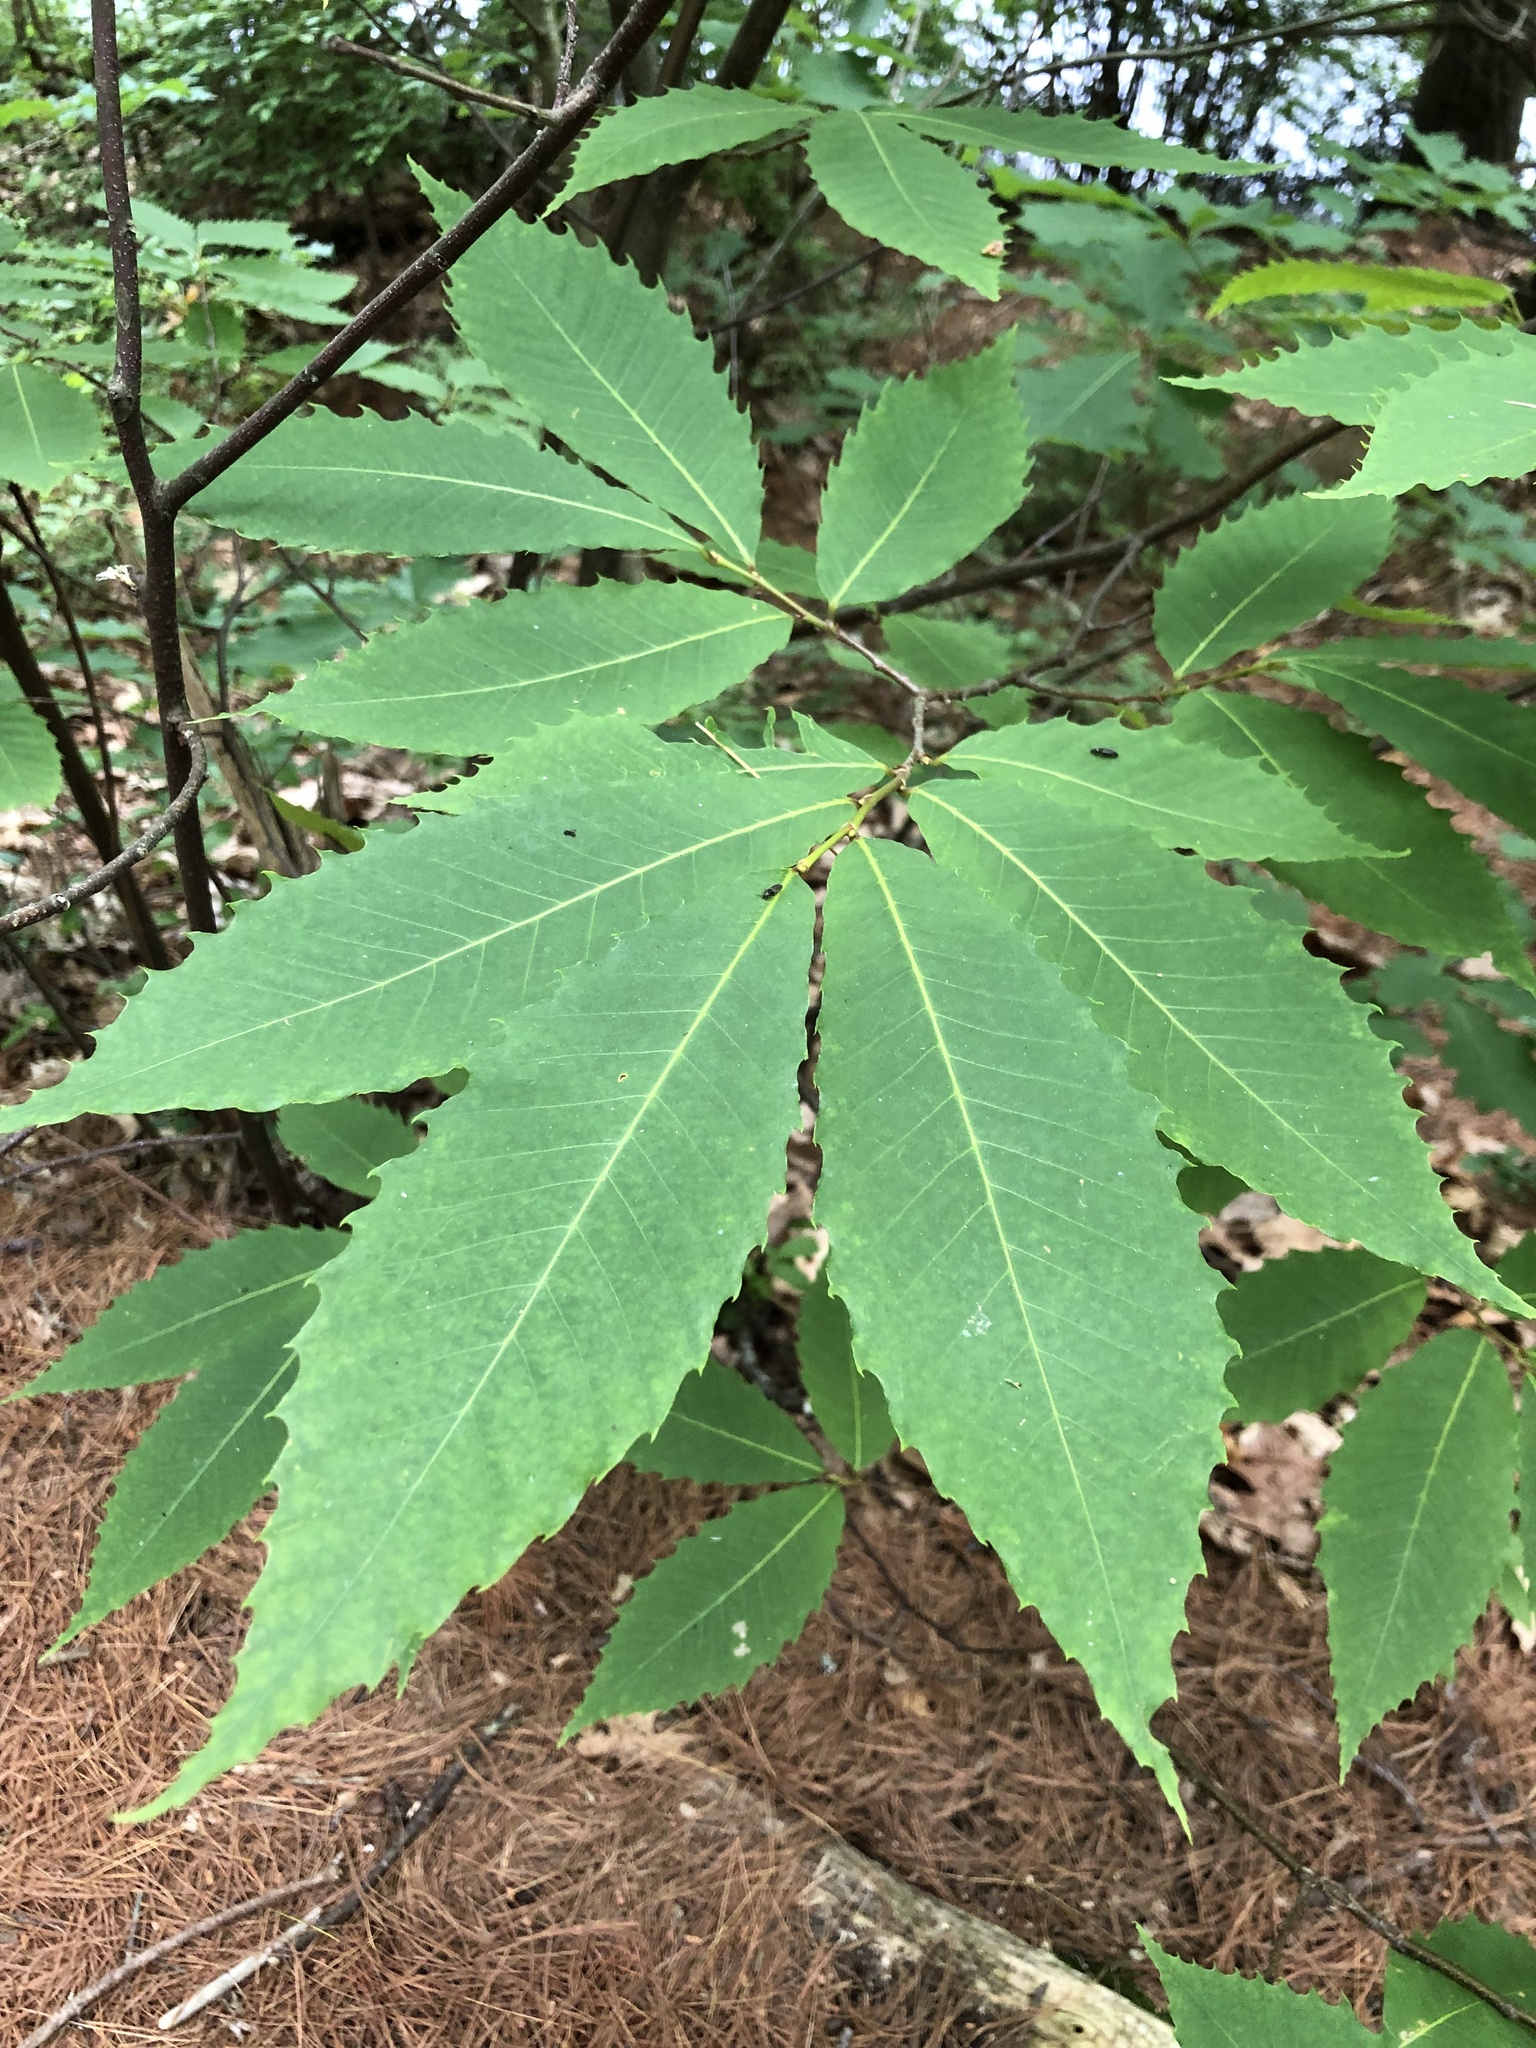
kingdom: Plantae
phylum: Tracheophyta
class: Magnoliopsida
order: Fagales
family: Fagaceae
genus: Castanea
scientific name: Castanea dentata
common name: American chestnut
